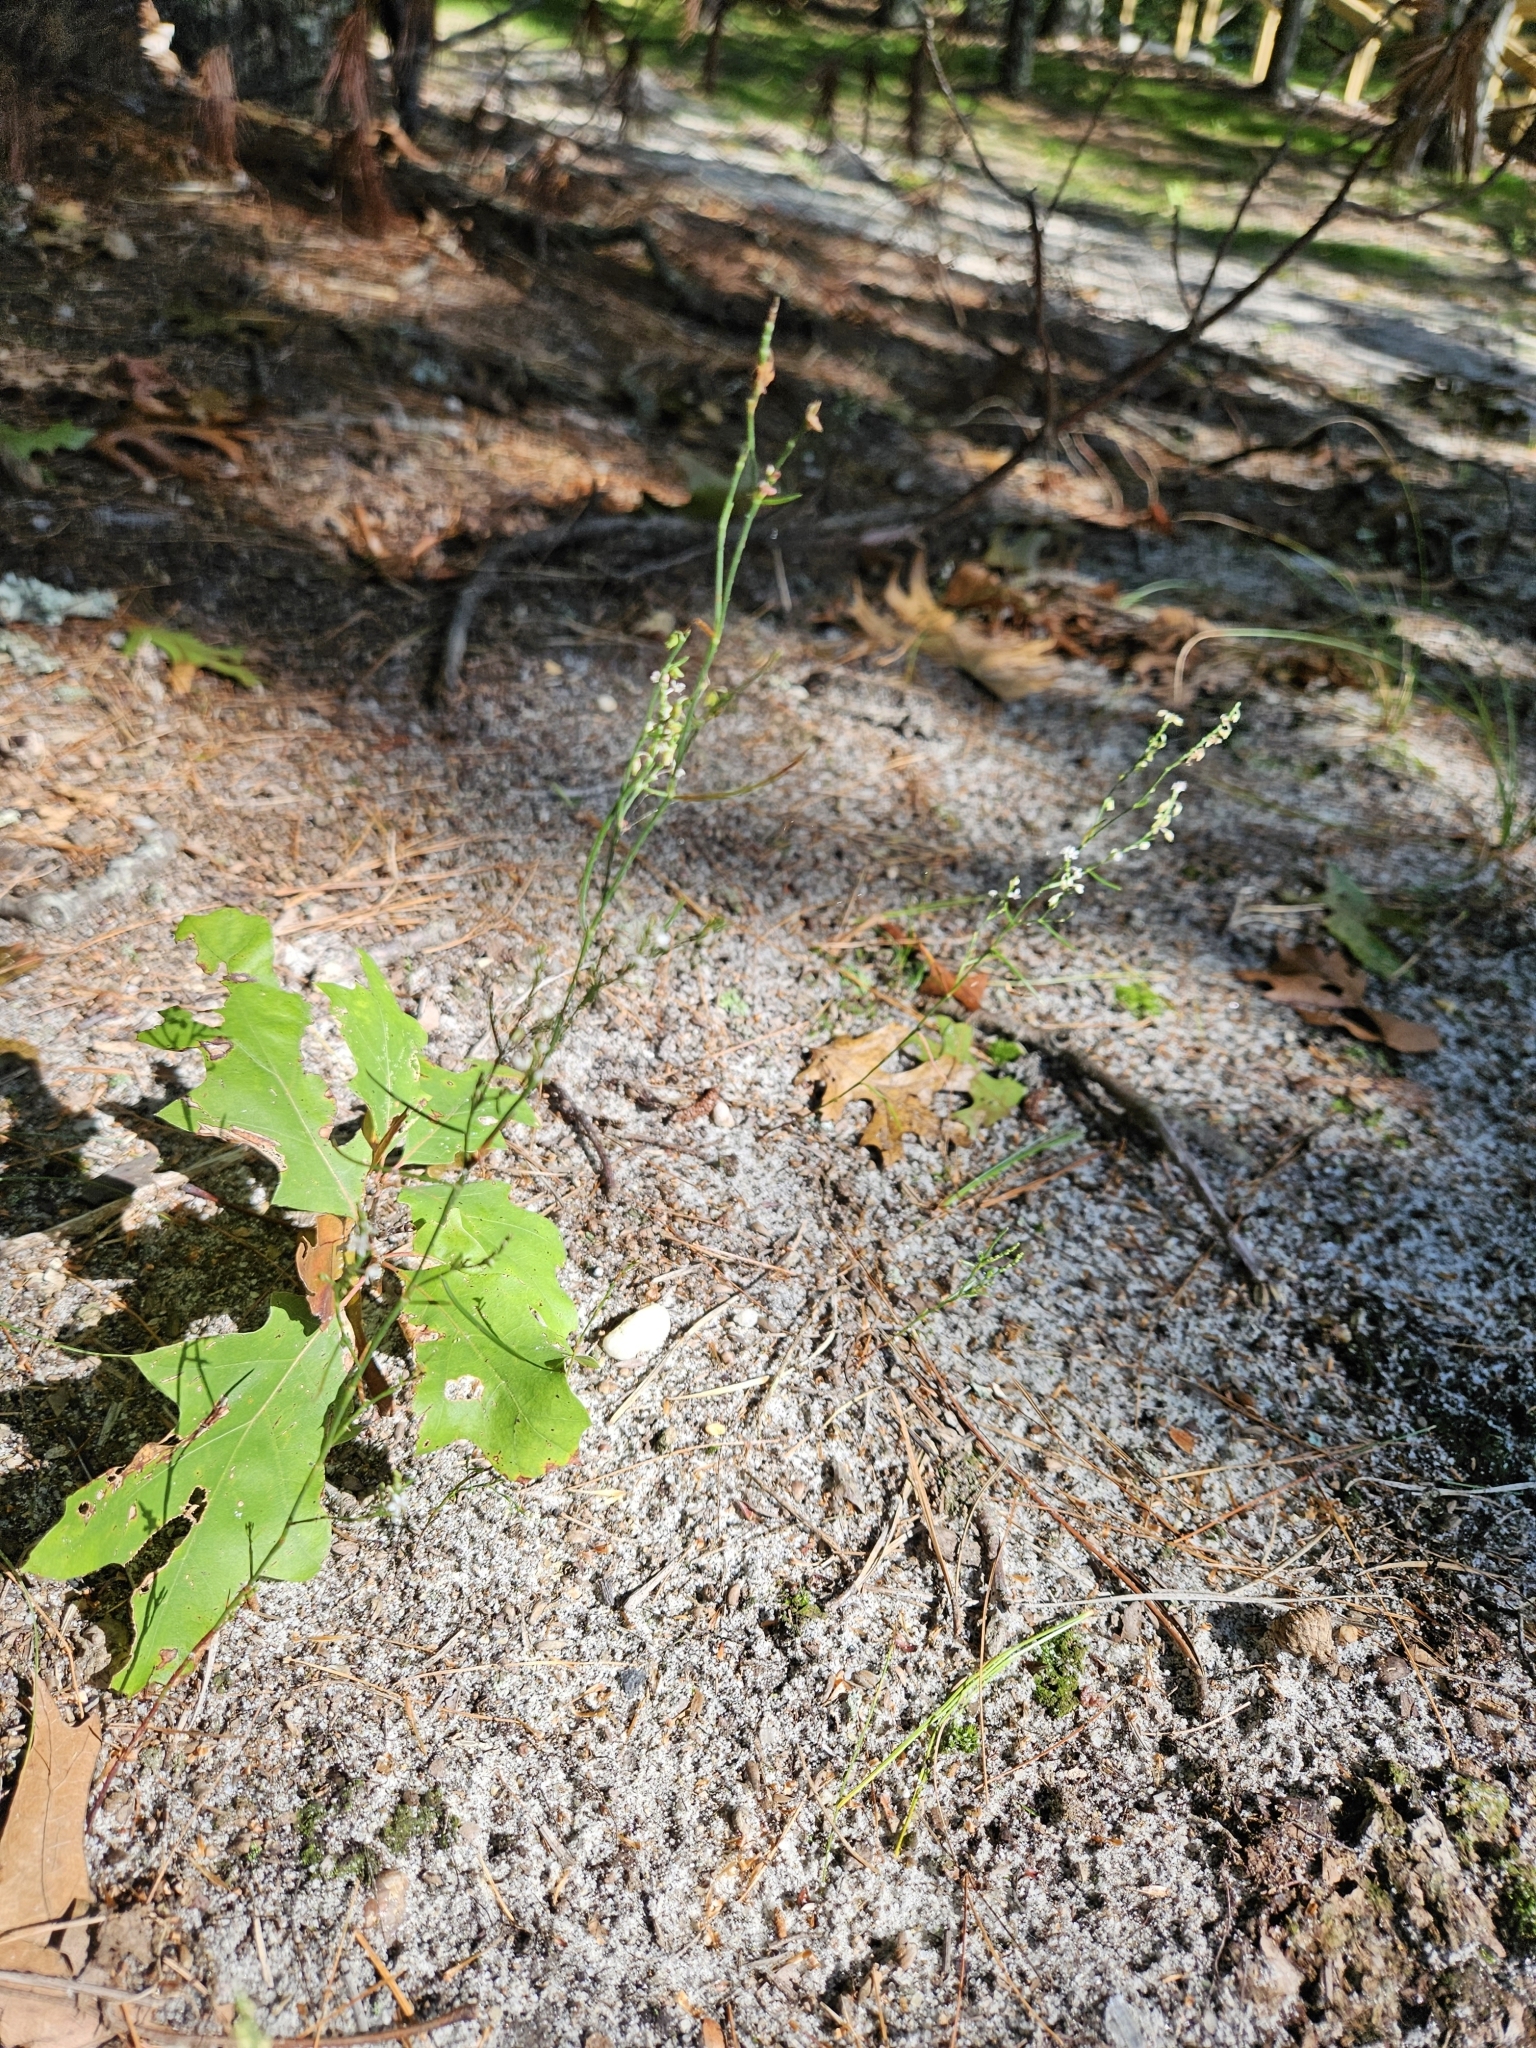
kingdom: Plantae
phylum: Tracheophyta
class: Magnoliopsida
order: Caryophyllales
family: Polygonaceae
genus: Polygonella
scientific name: Polygonella articulata
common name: Coastal jointweed
